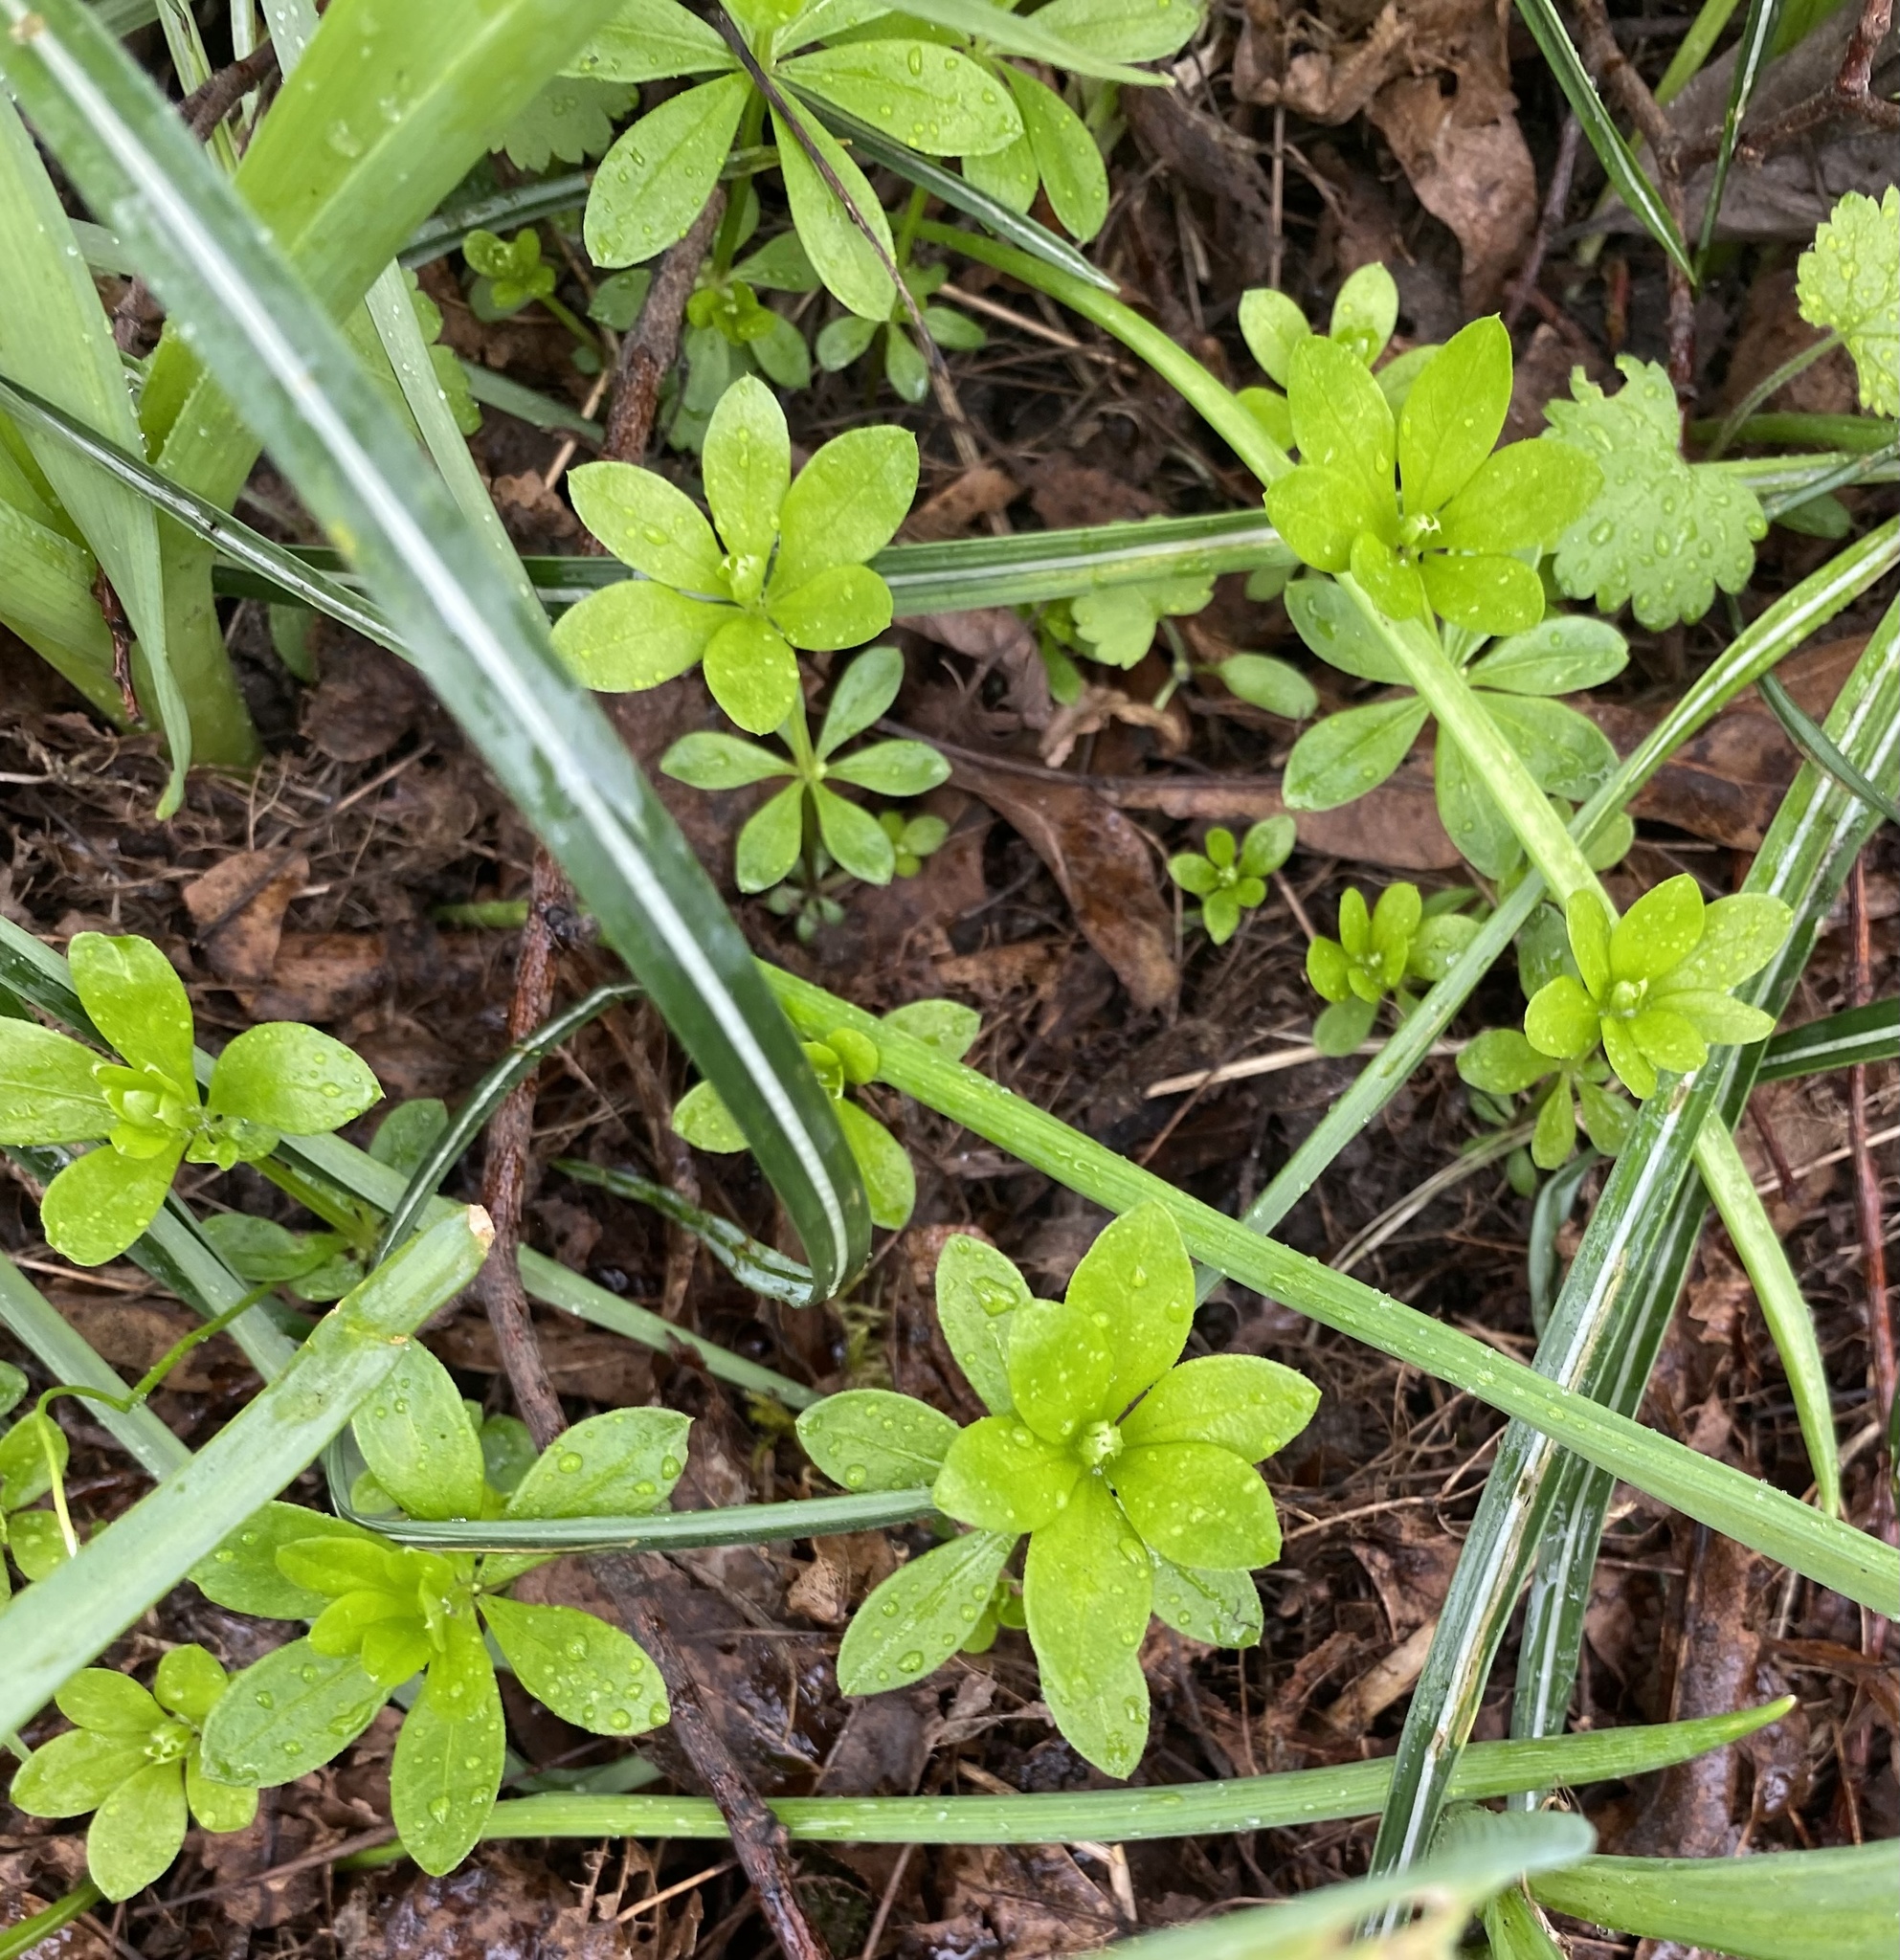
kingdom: Plantae
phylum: Tracheophyta
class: Magnoliopsida
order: Gentianales
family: Rubiaceae
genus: Galium
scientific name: Galium odoratum
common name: Sweet woodruff
